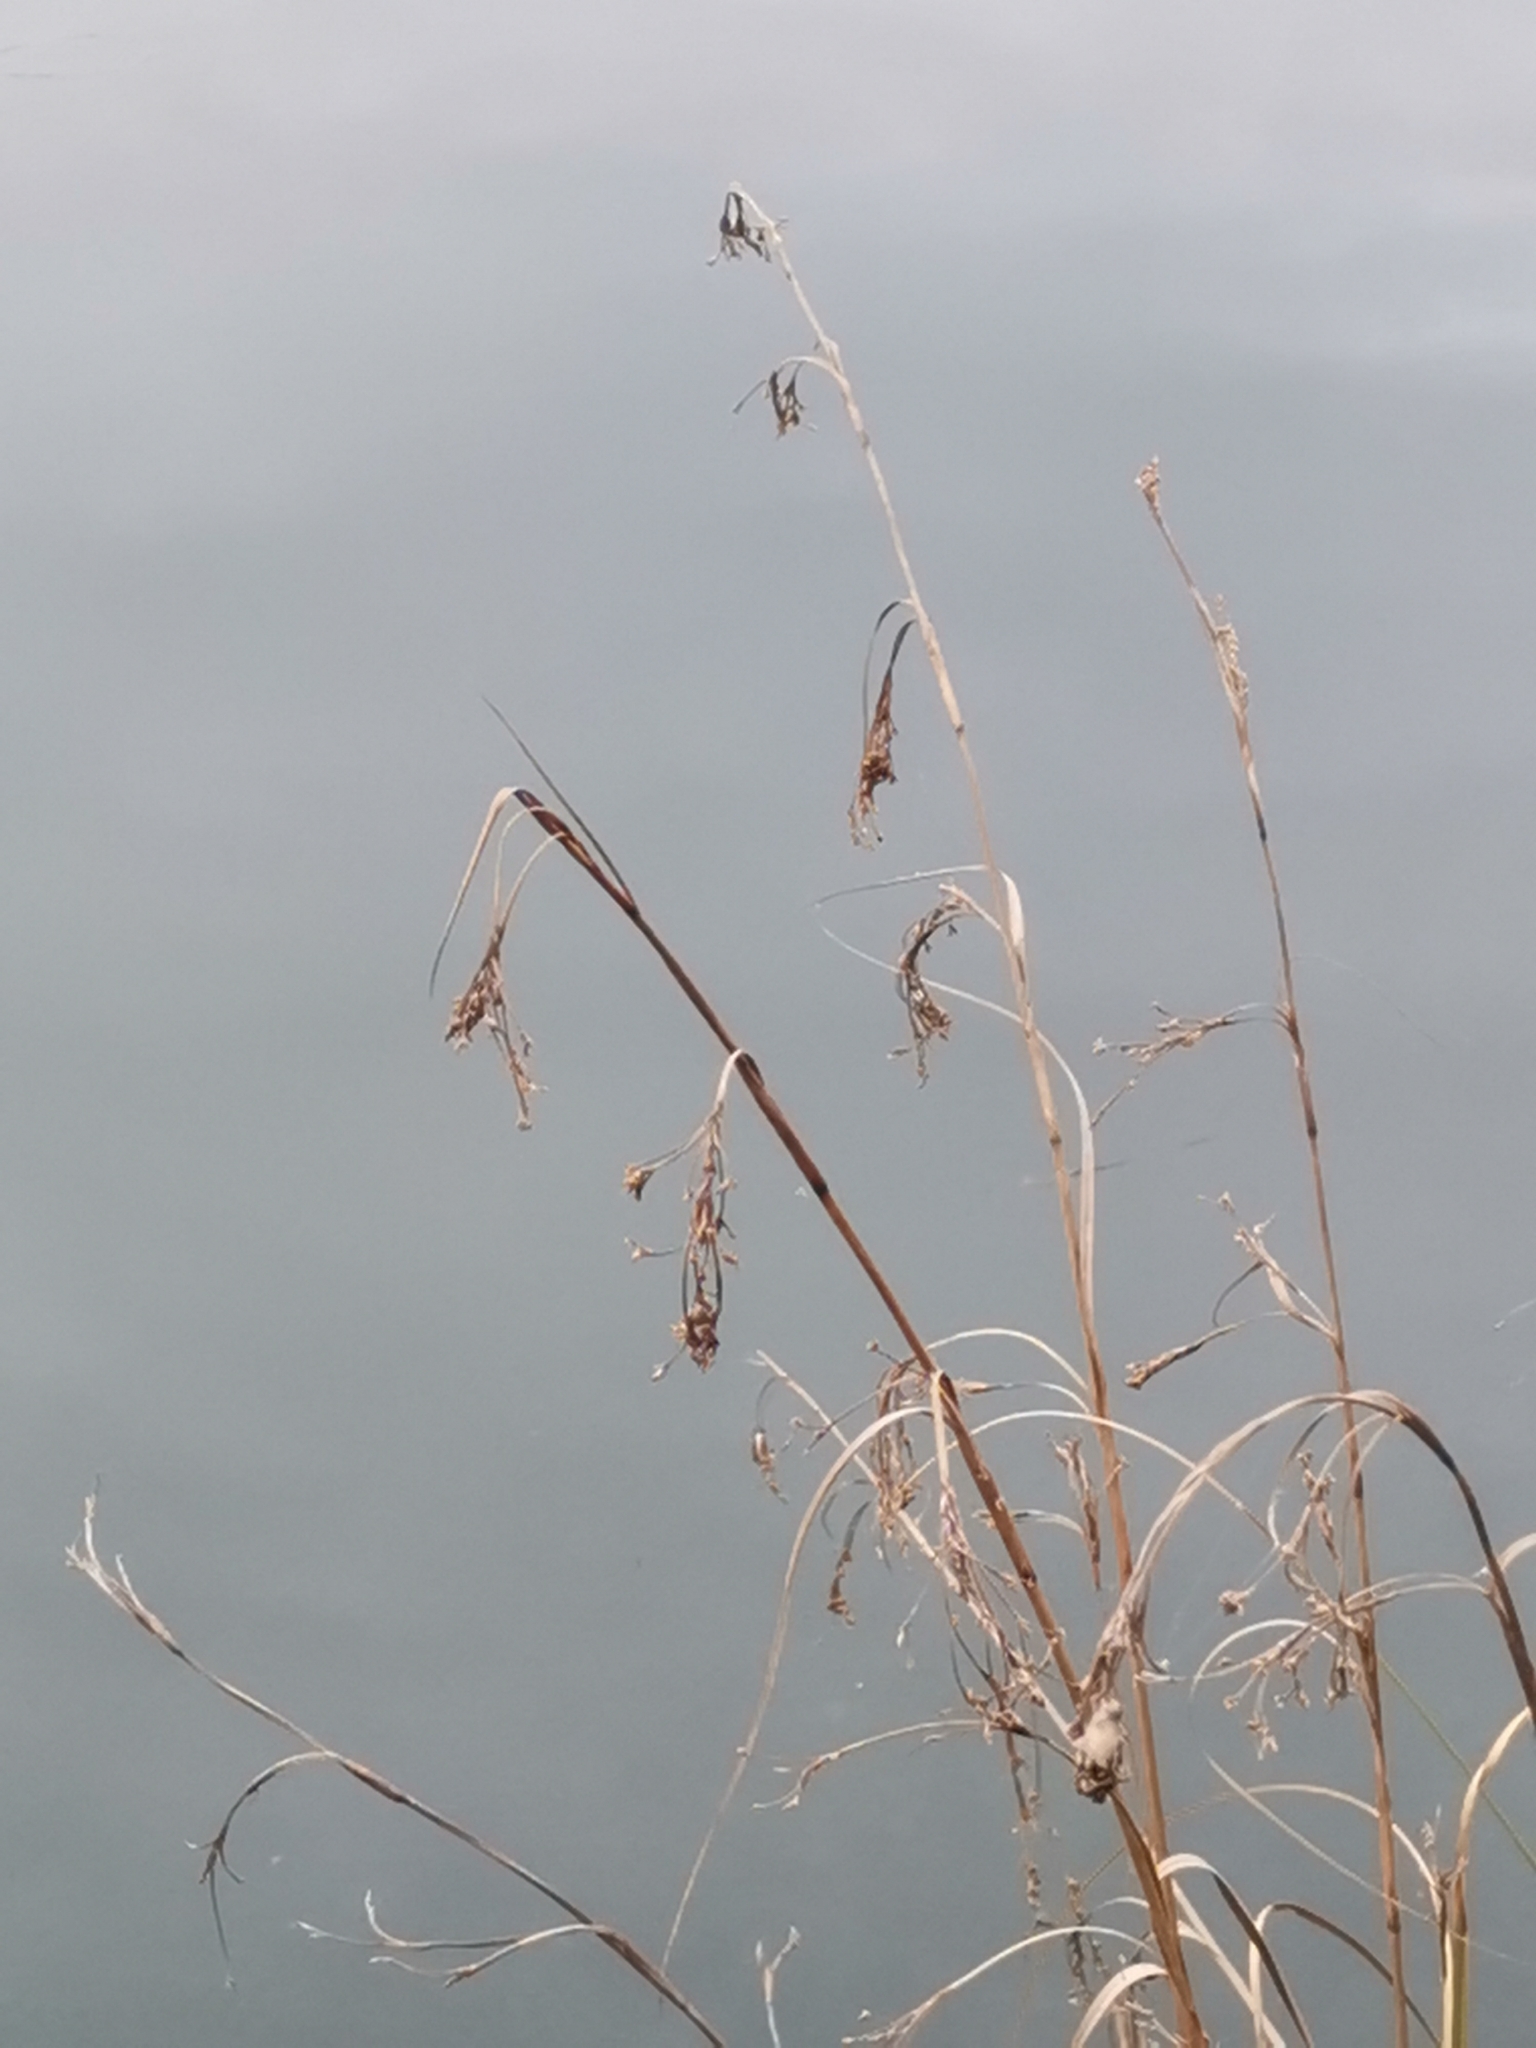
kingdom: Plantae
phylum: Tracheophyta
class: Liliopsida
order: Poales
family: Cyperaceae
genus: Cladium
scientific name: Cladium mariscus
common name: Great fen-sedge
